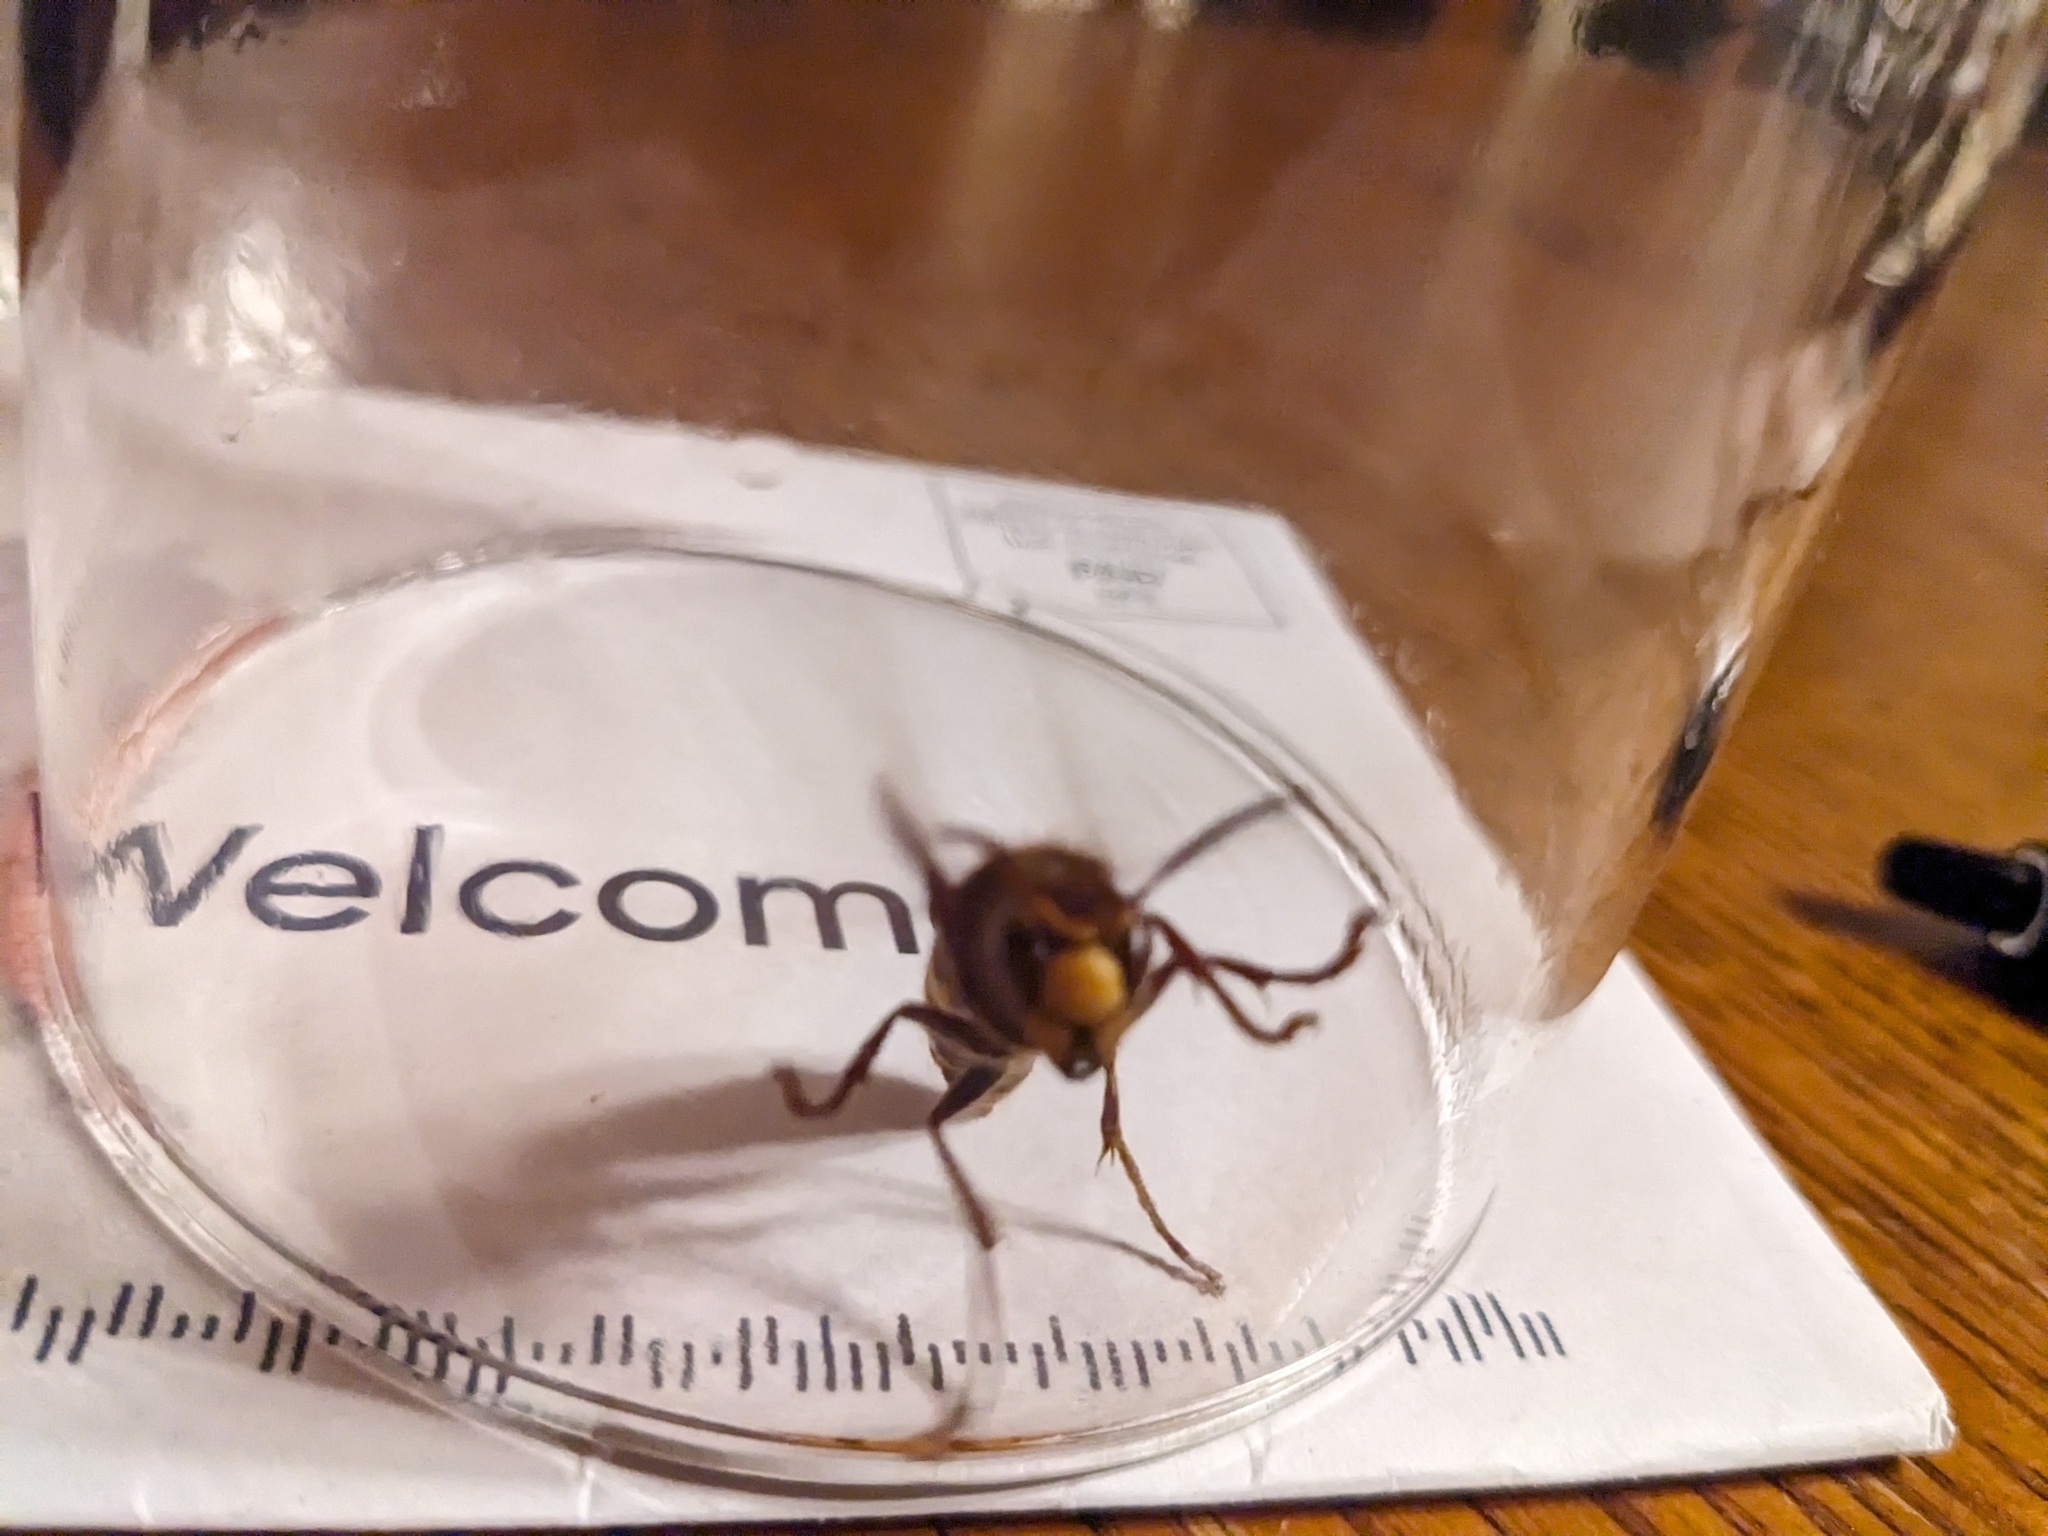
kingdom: Animalia
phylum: Arthropoda
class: Insecta
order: Hymenoptera
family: Vespidae
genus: Vespa
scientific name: Vespa crabro
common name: Hornet
